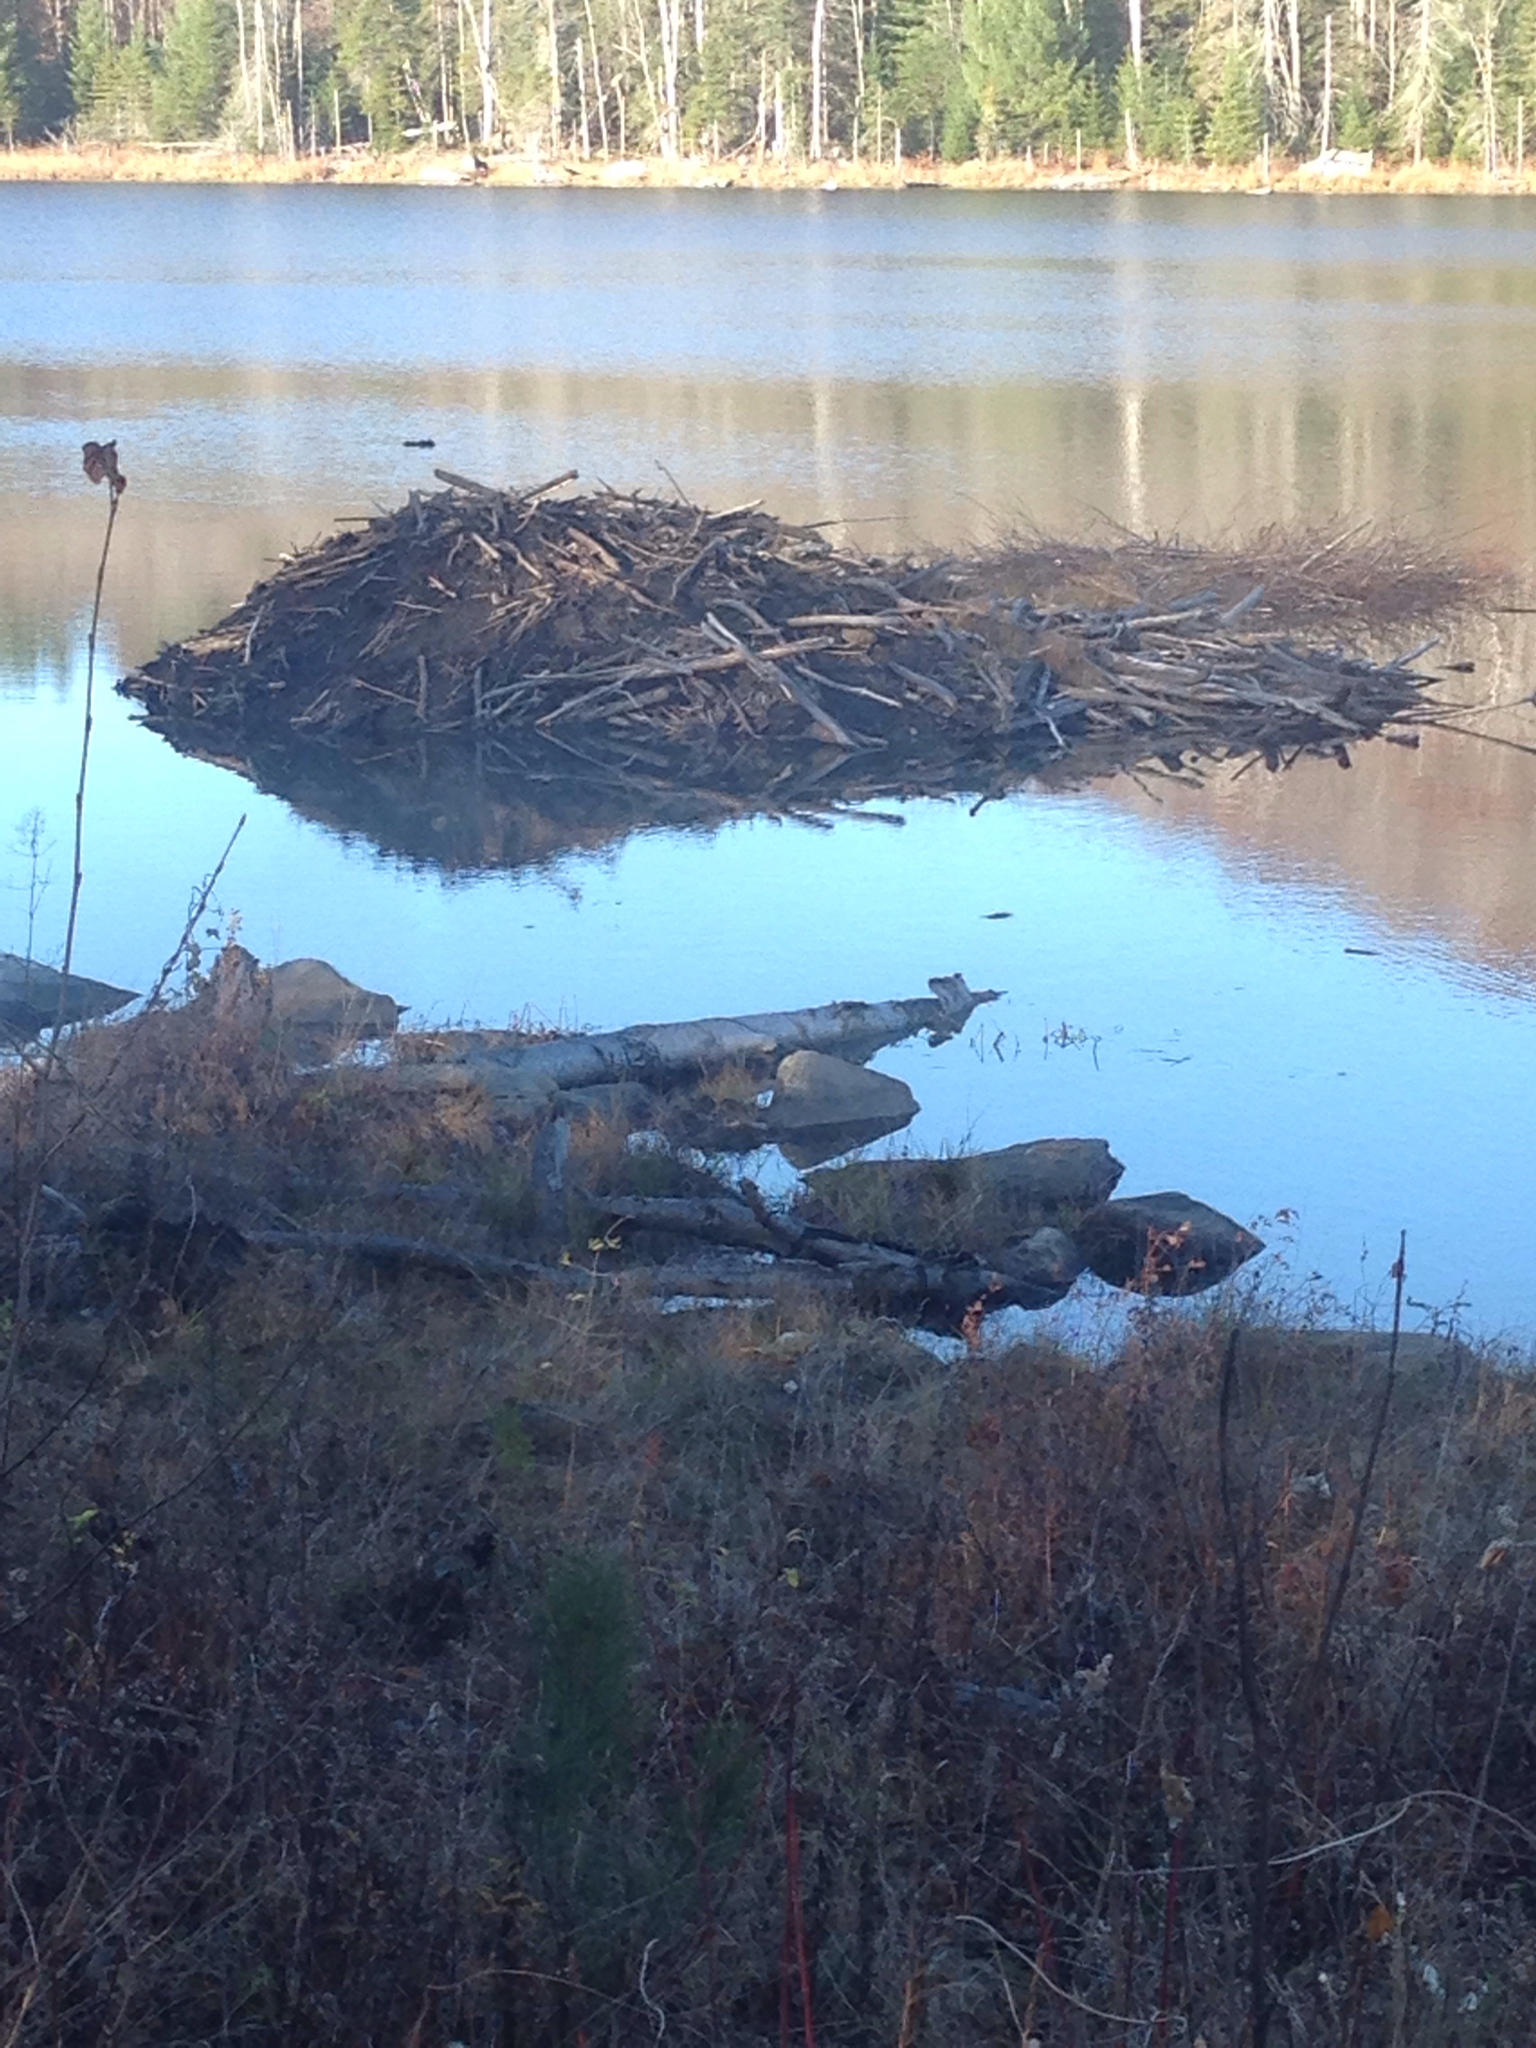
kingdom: Animalia
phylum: Chordata
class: Mammalia
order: Rodentia
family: Castoridae
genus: Castor
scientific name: Castor canadensis
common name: American beaver
